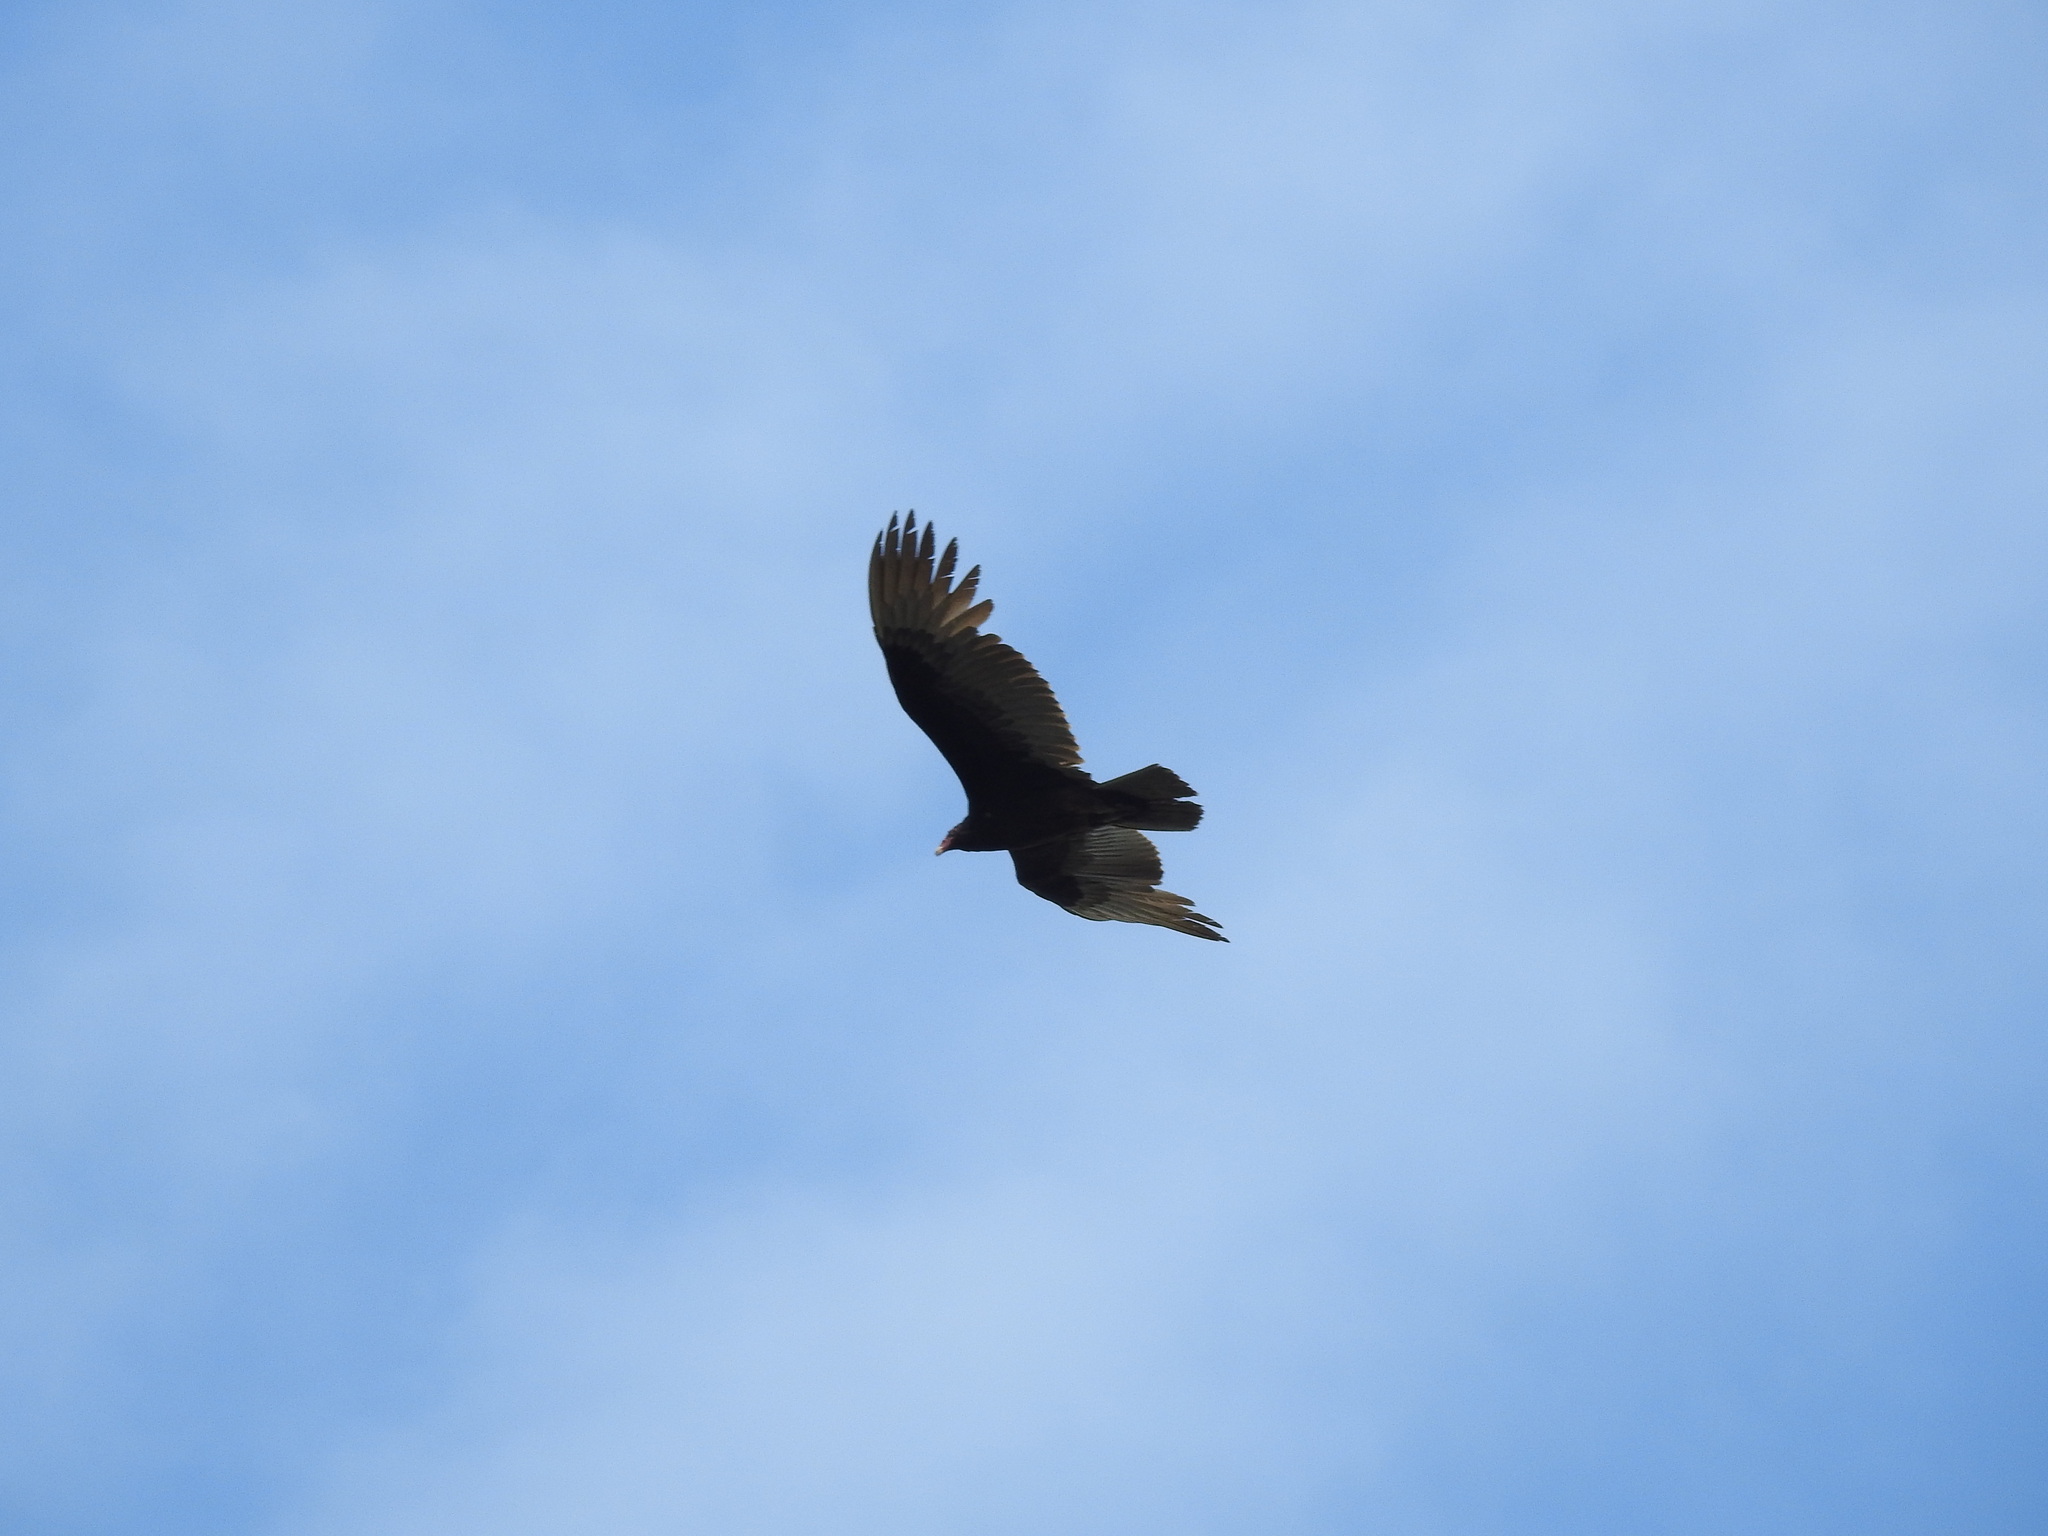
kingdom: Animalia
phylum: Chordata
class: Aves
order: Accipitriformes
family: Cathartidae
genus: Cathartes
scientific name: Cathartes aura
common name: Turkey vulture
